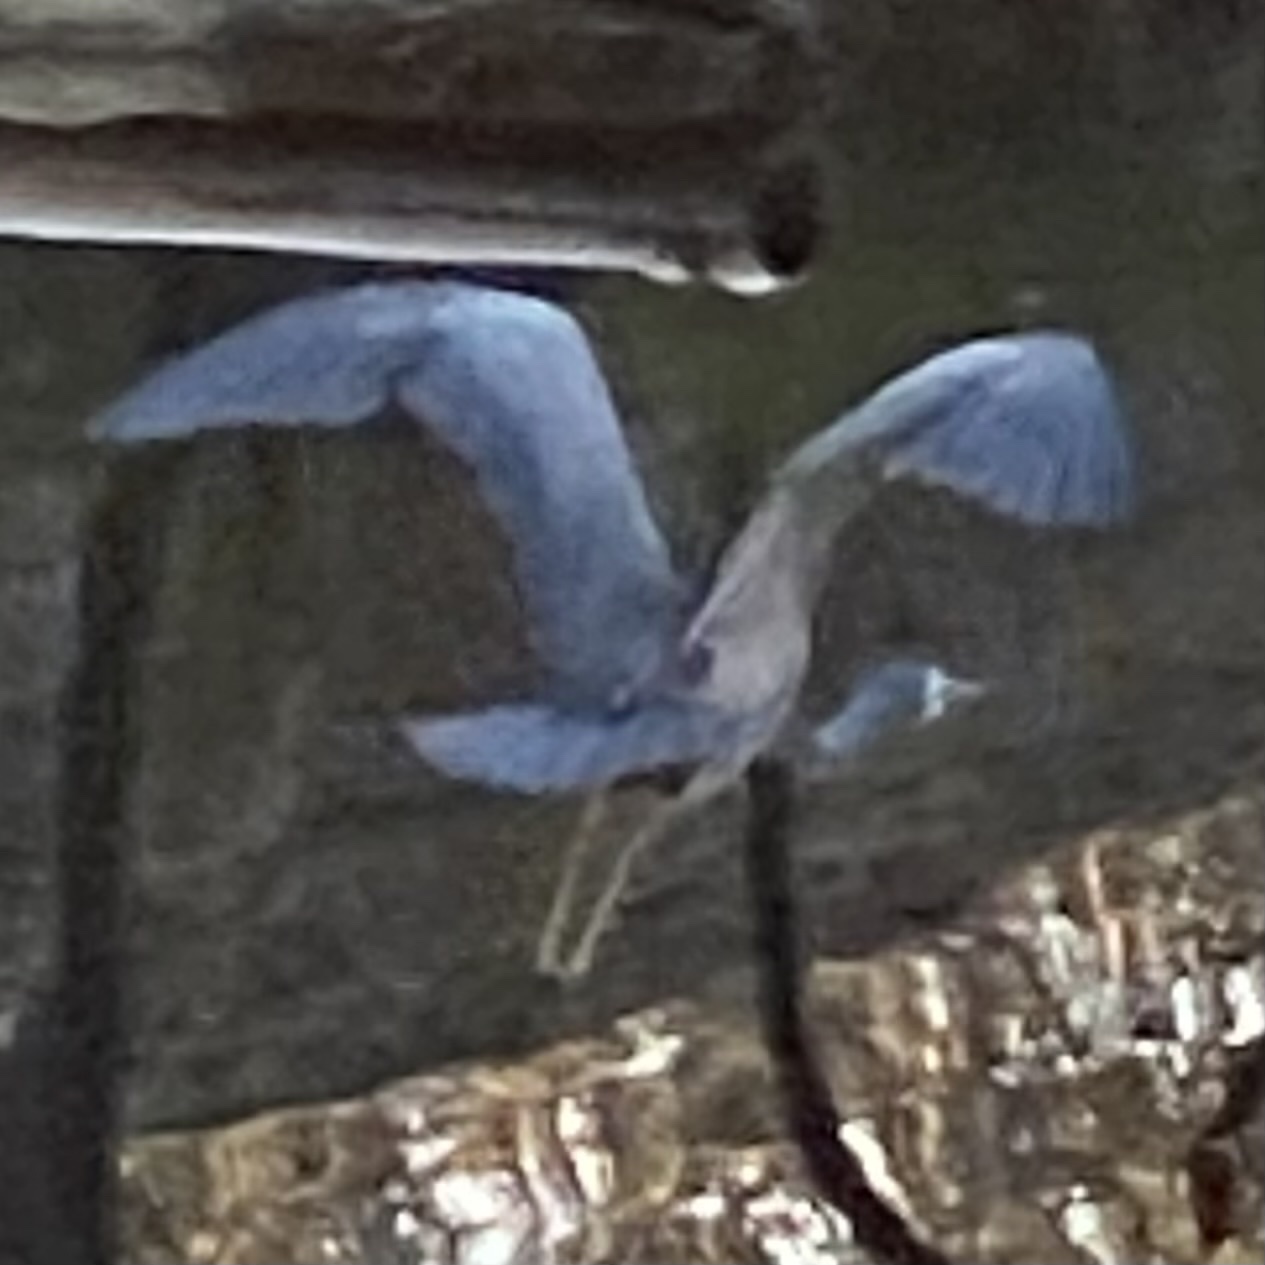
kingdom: Animalia
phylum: Chordata
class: Aves
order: Pelecaniformes
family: Ardeidae
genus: Egretta
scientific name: Egretta novaehollandiae
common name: White-faced heron
